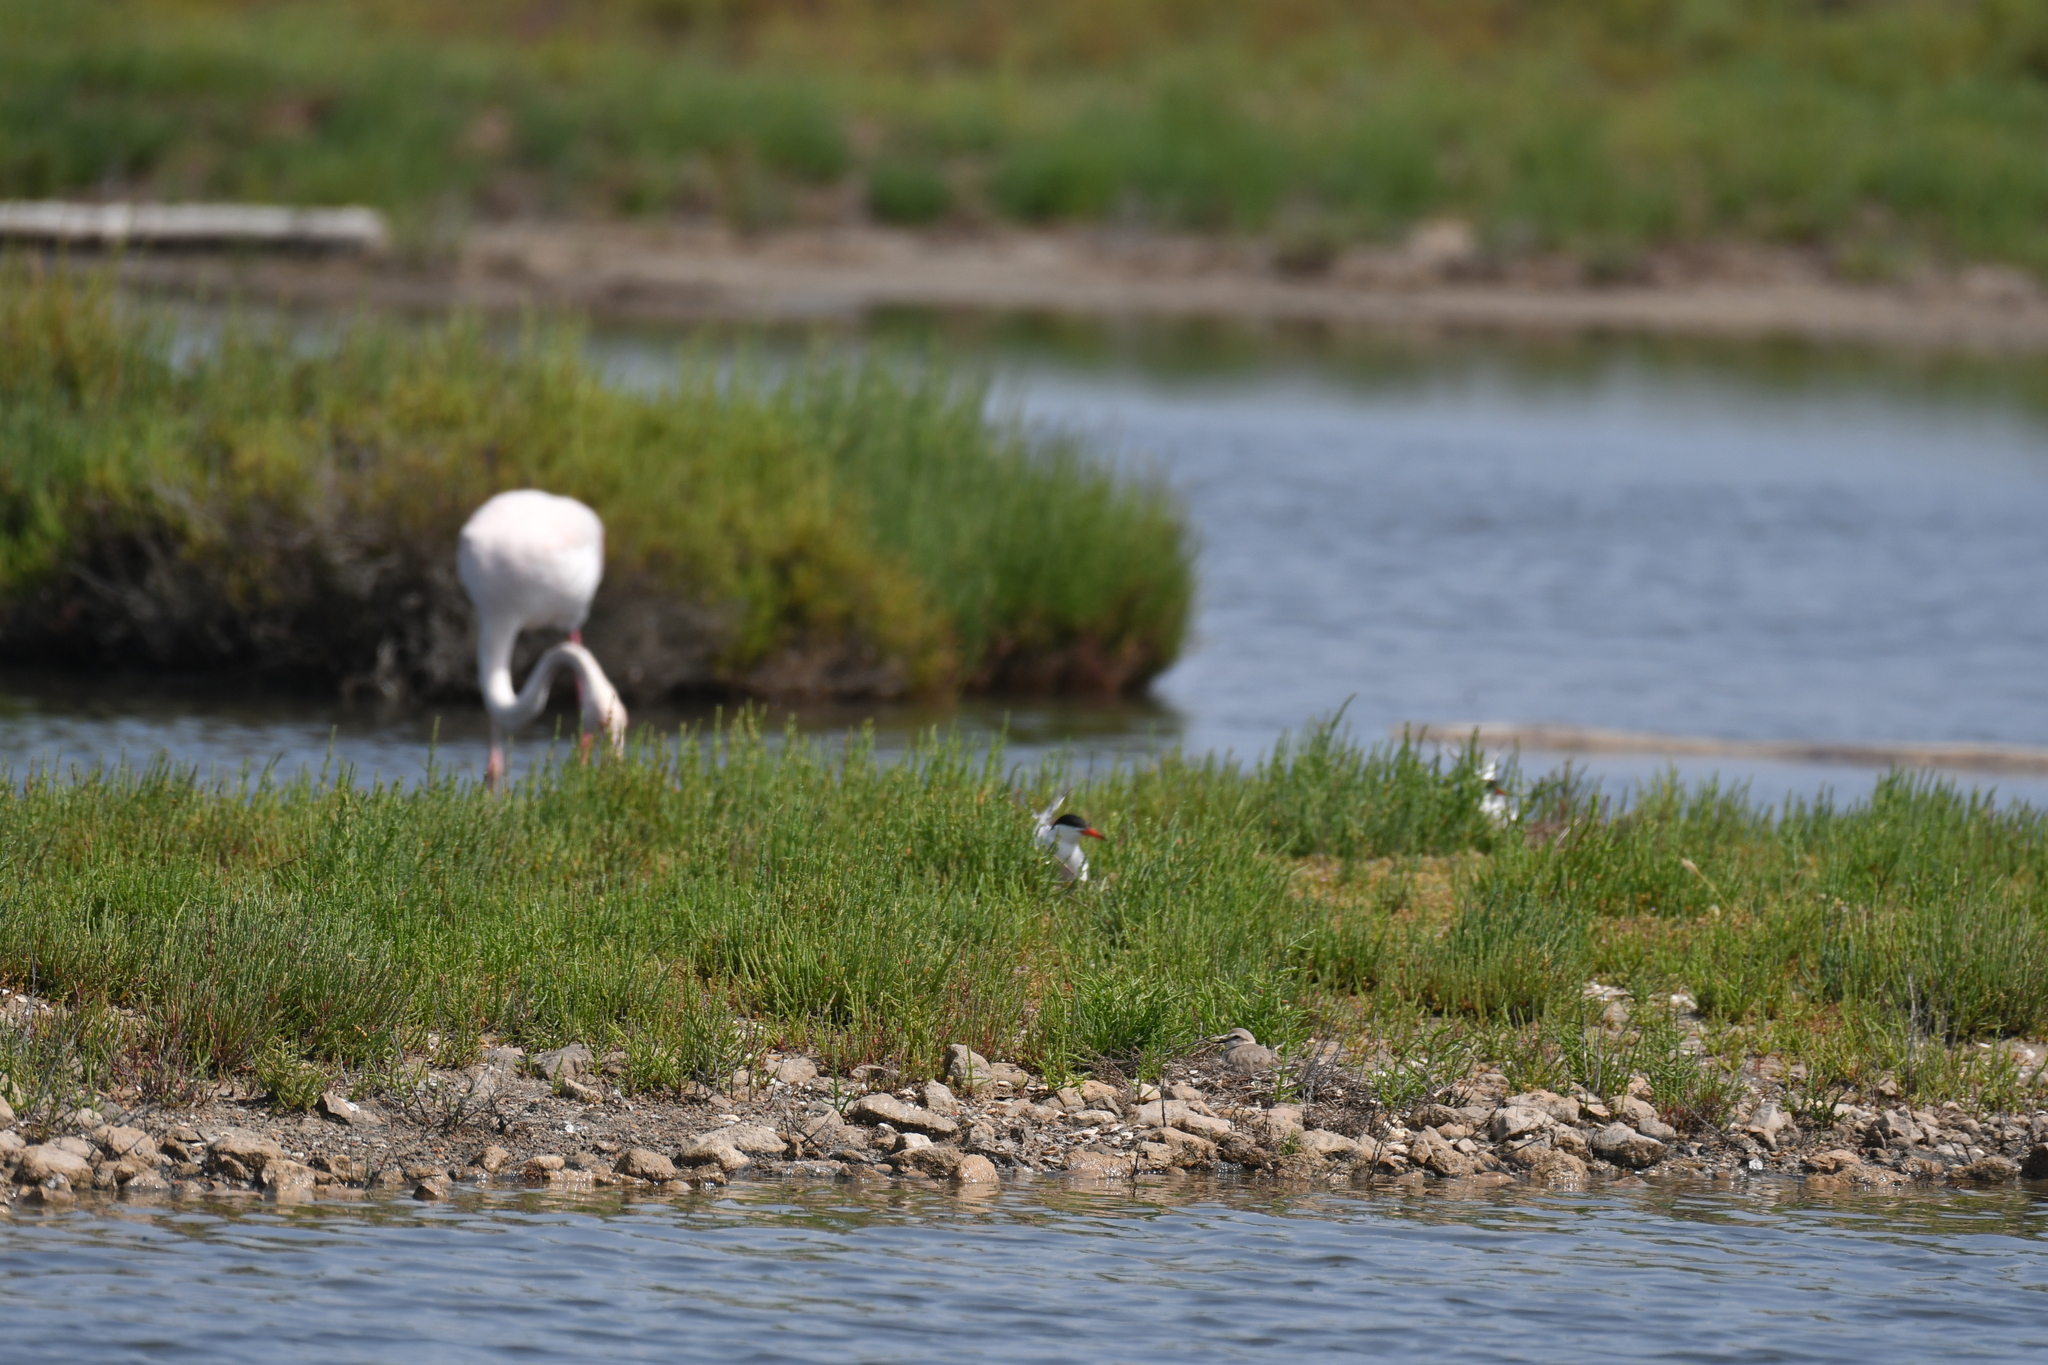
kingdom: Animalia
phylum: Chordata
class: Aves
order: Charadriiformes
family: Laridae
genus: Sterna
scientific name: Sterna hirundo
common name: Common tern
